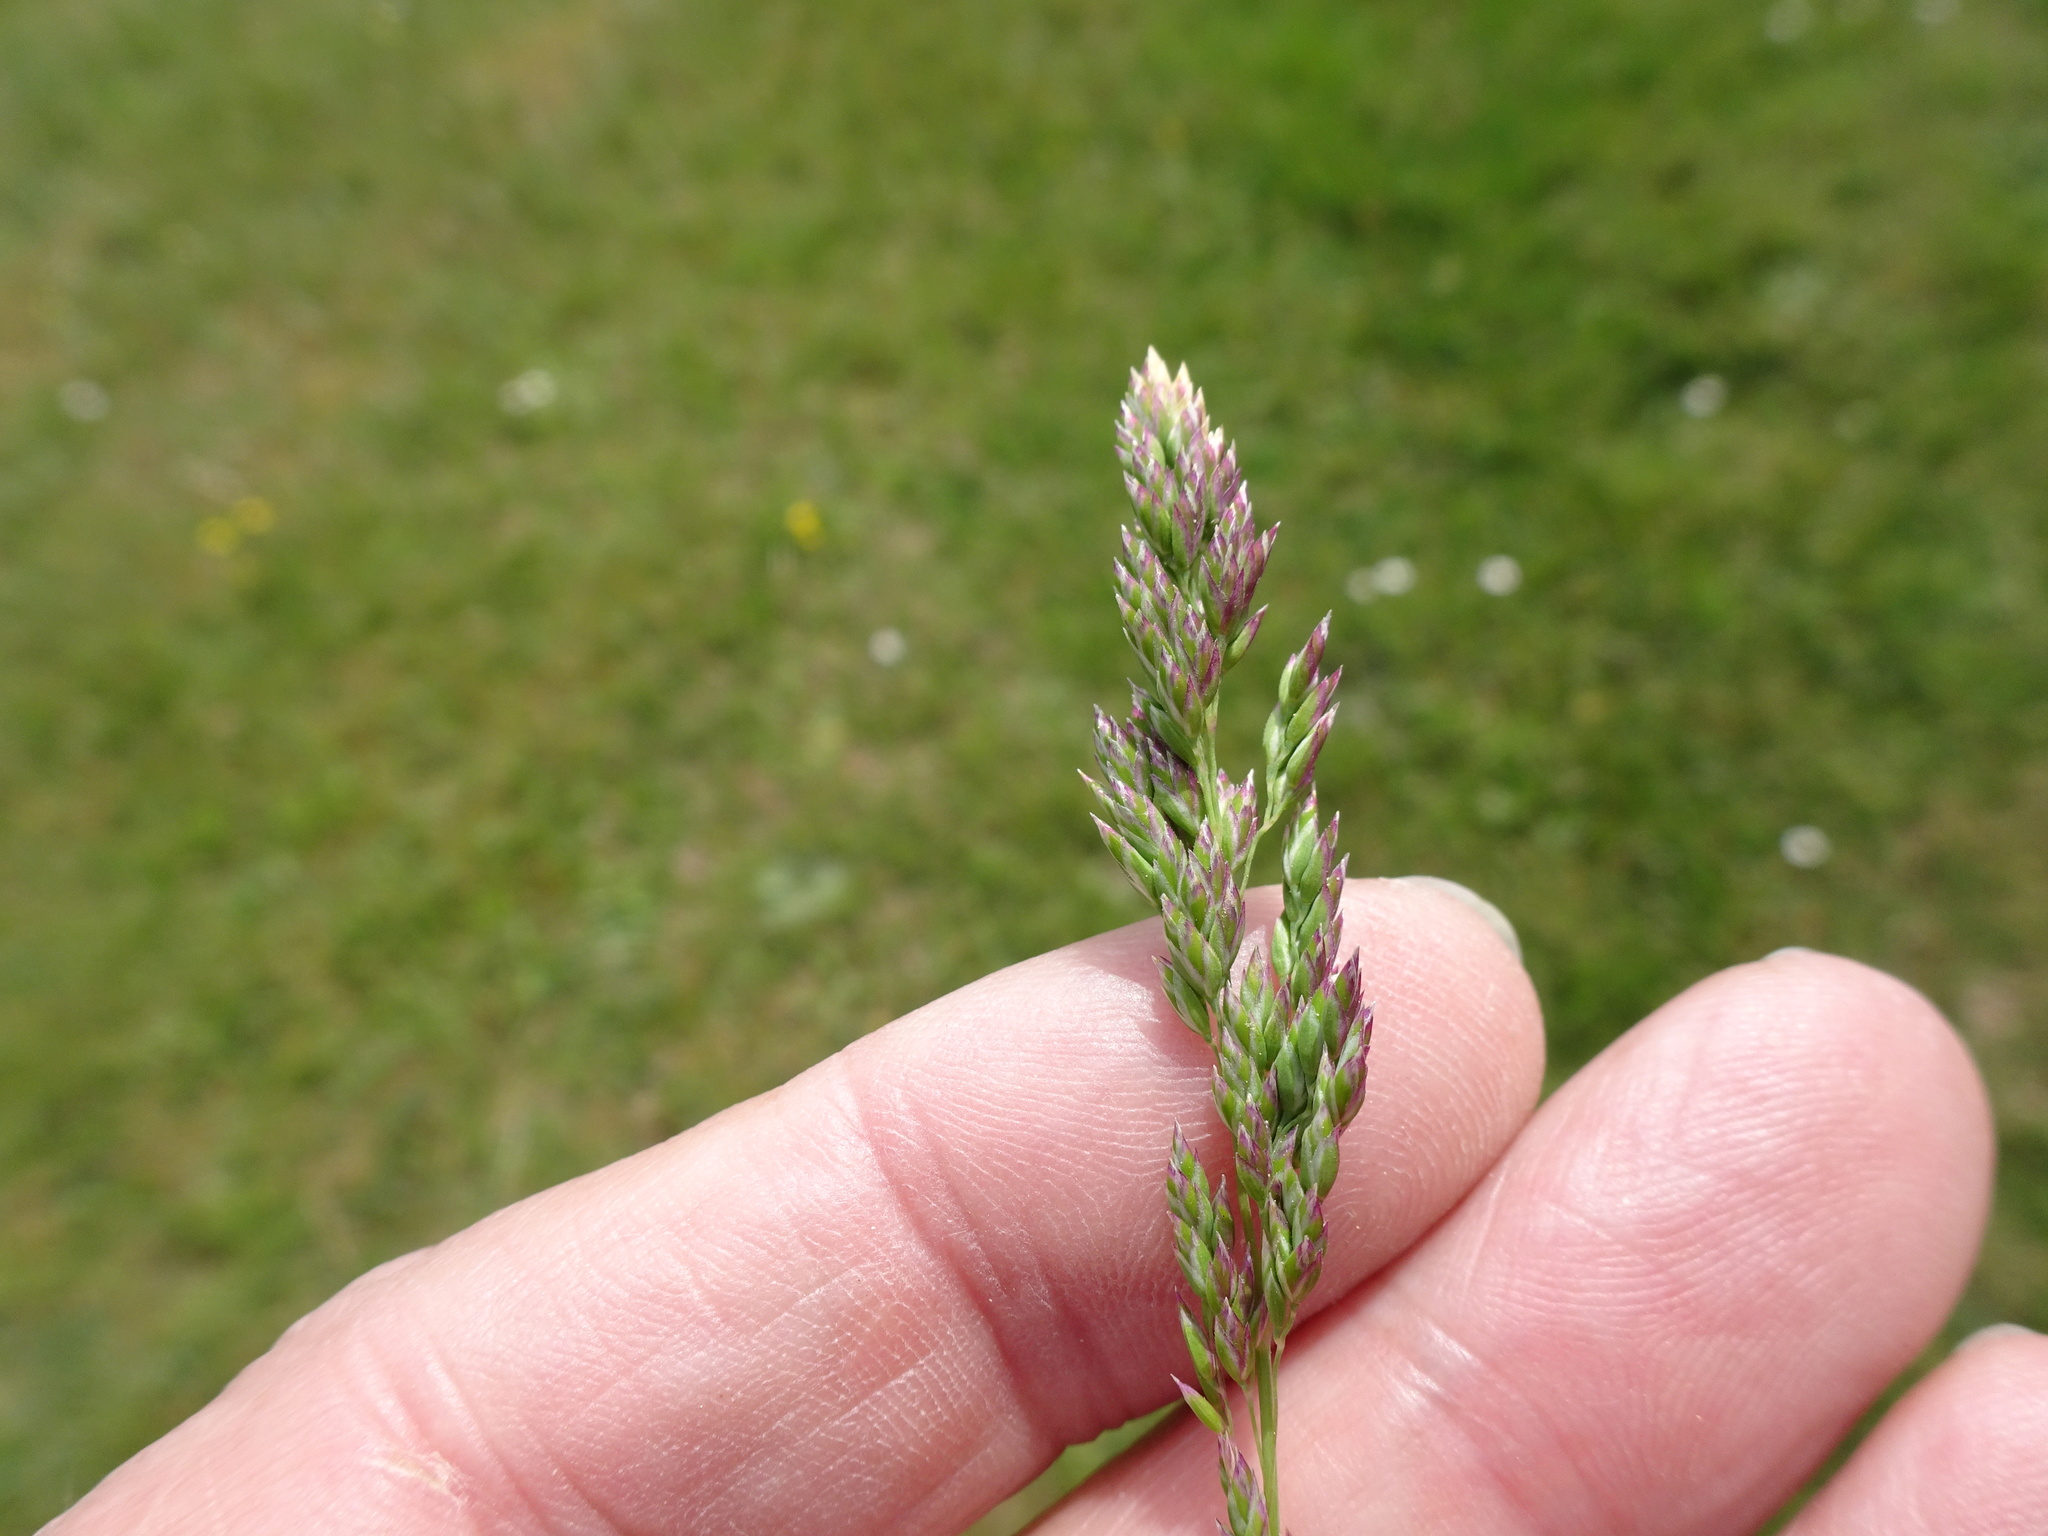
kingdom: Plantae
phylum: Tracheophyta
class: Liliopsida
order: Poales
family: Poaceae
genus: Poa
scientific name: Poa pratensis
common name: Kentucky bluegrass
